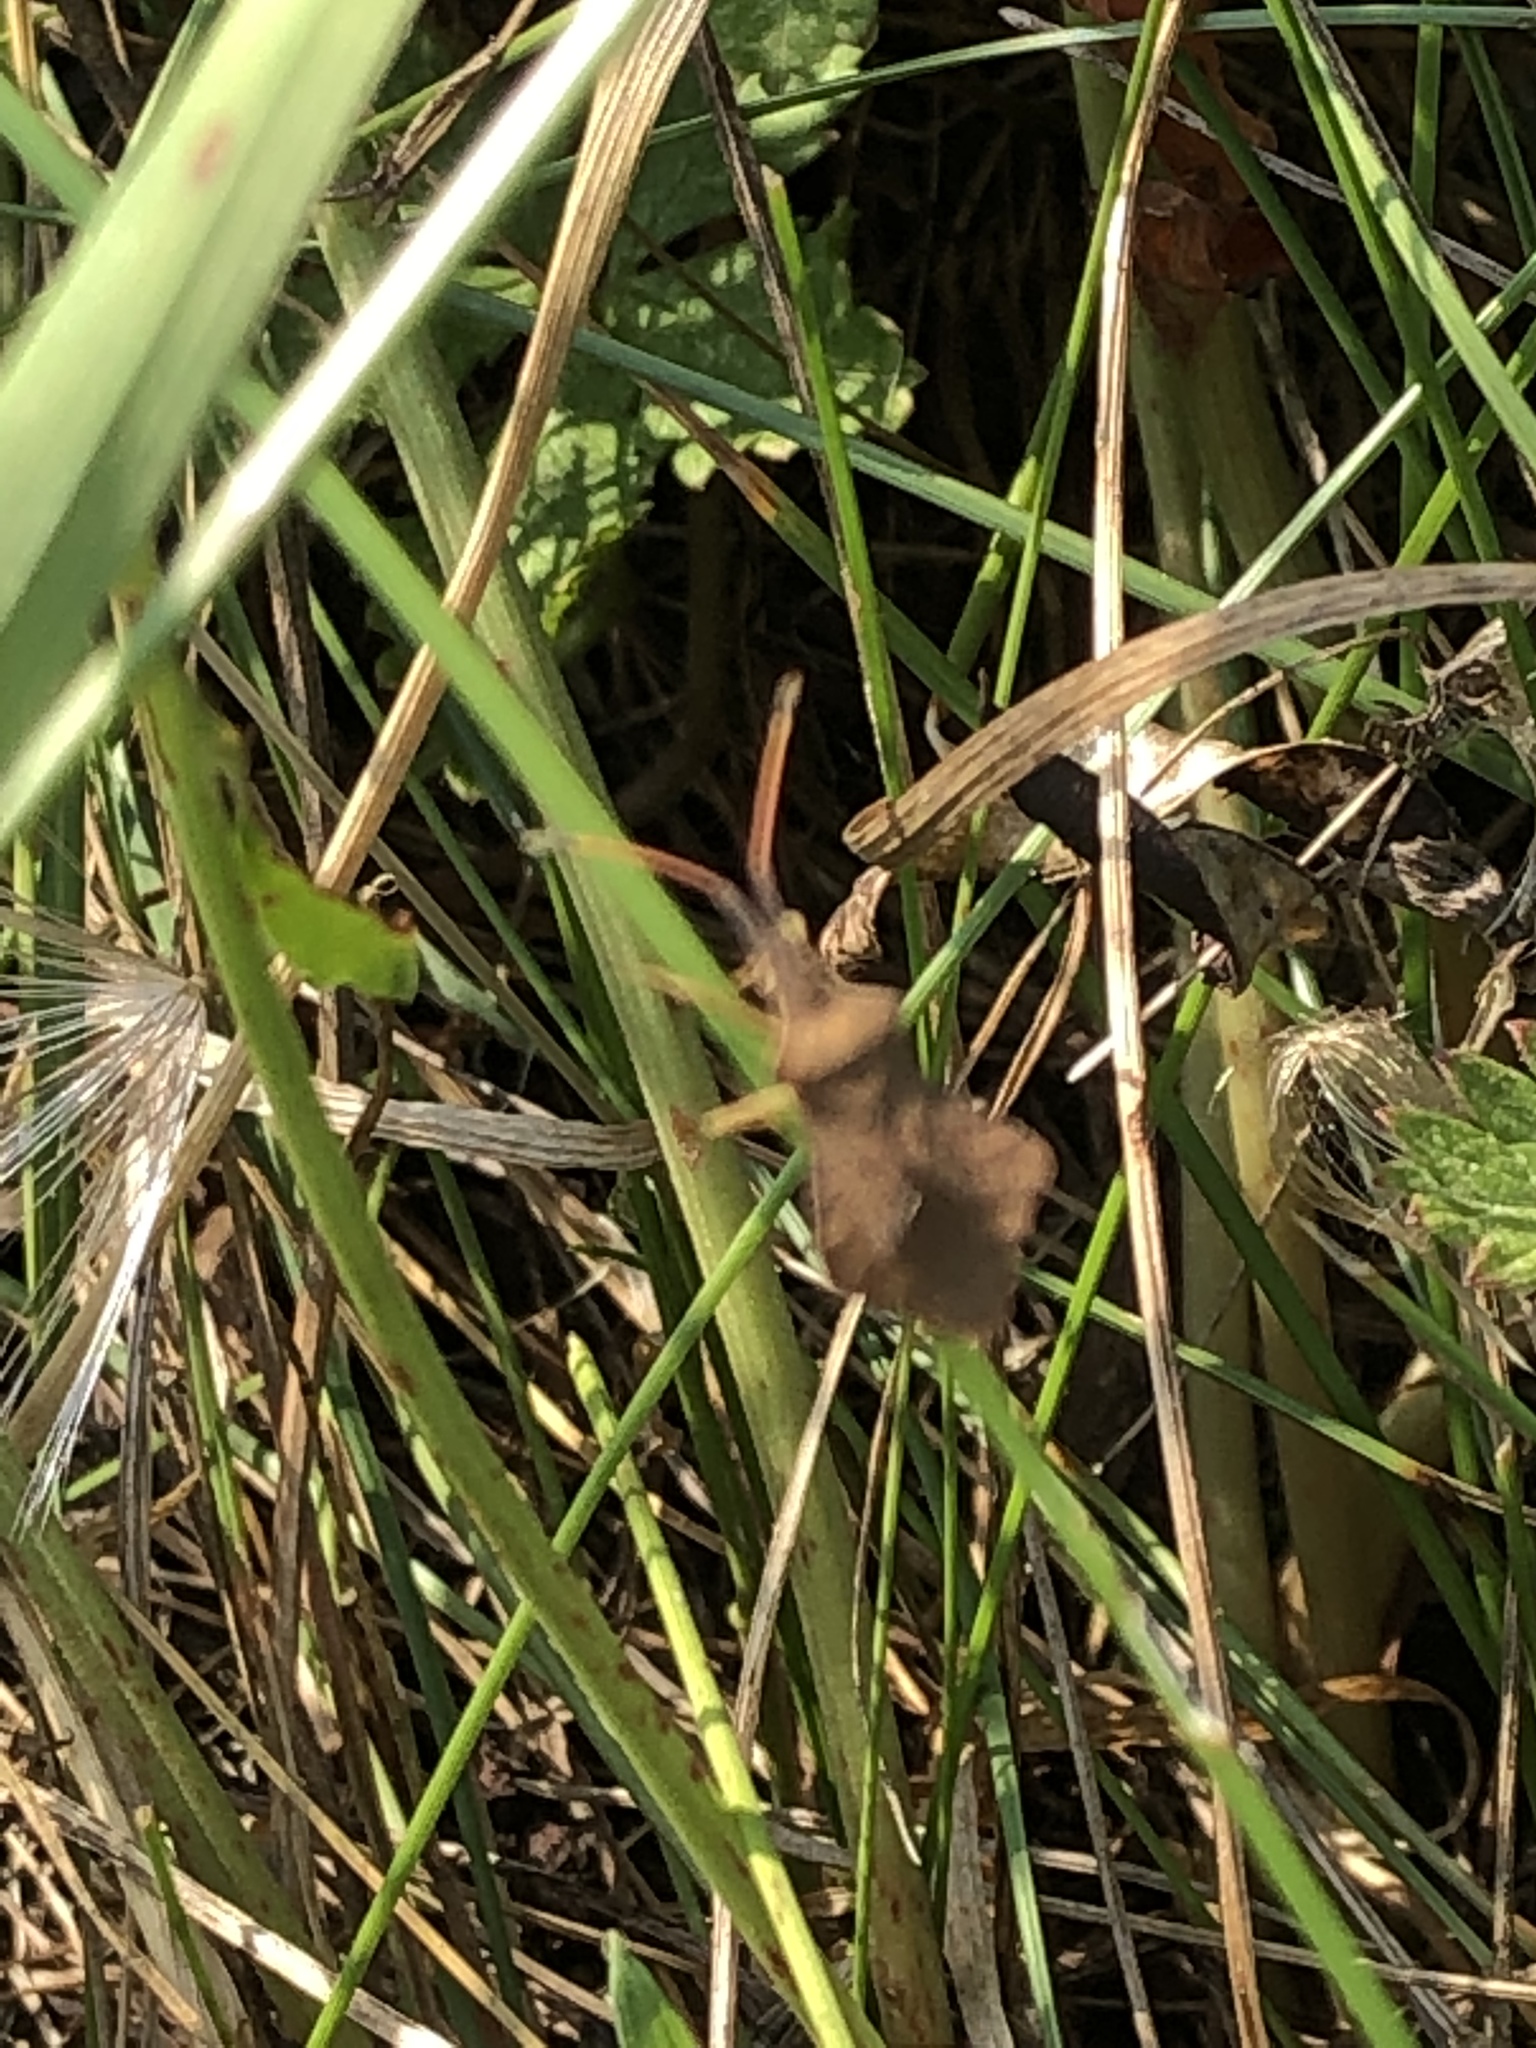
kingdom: Animalia
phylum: Arthropoda
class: Insecta
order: Hemiptera
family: Coreidae
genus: Coreus
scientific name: Coreus marginatus
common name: Dock bug
